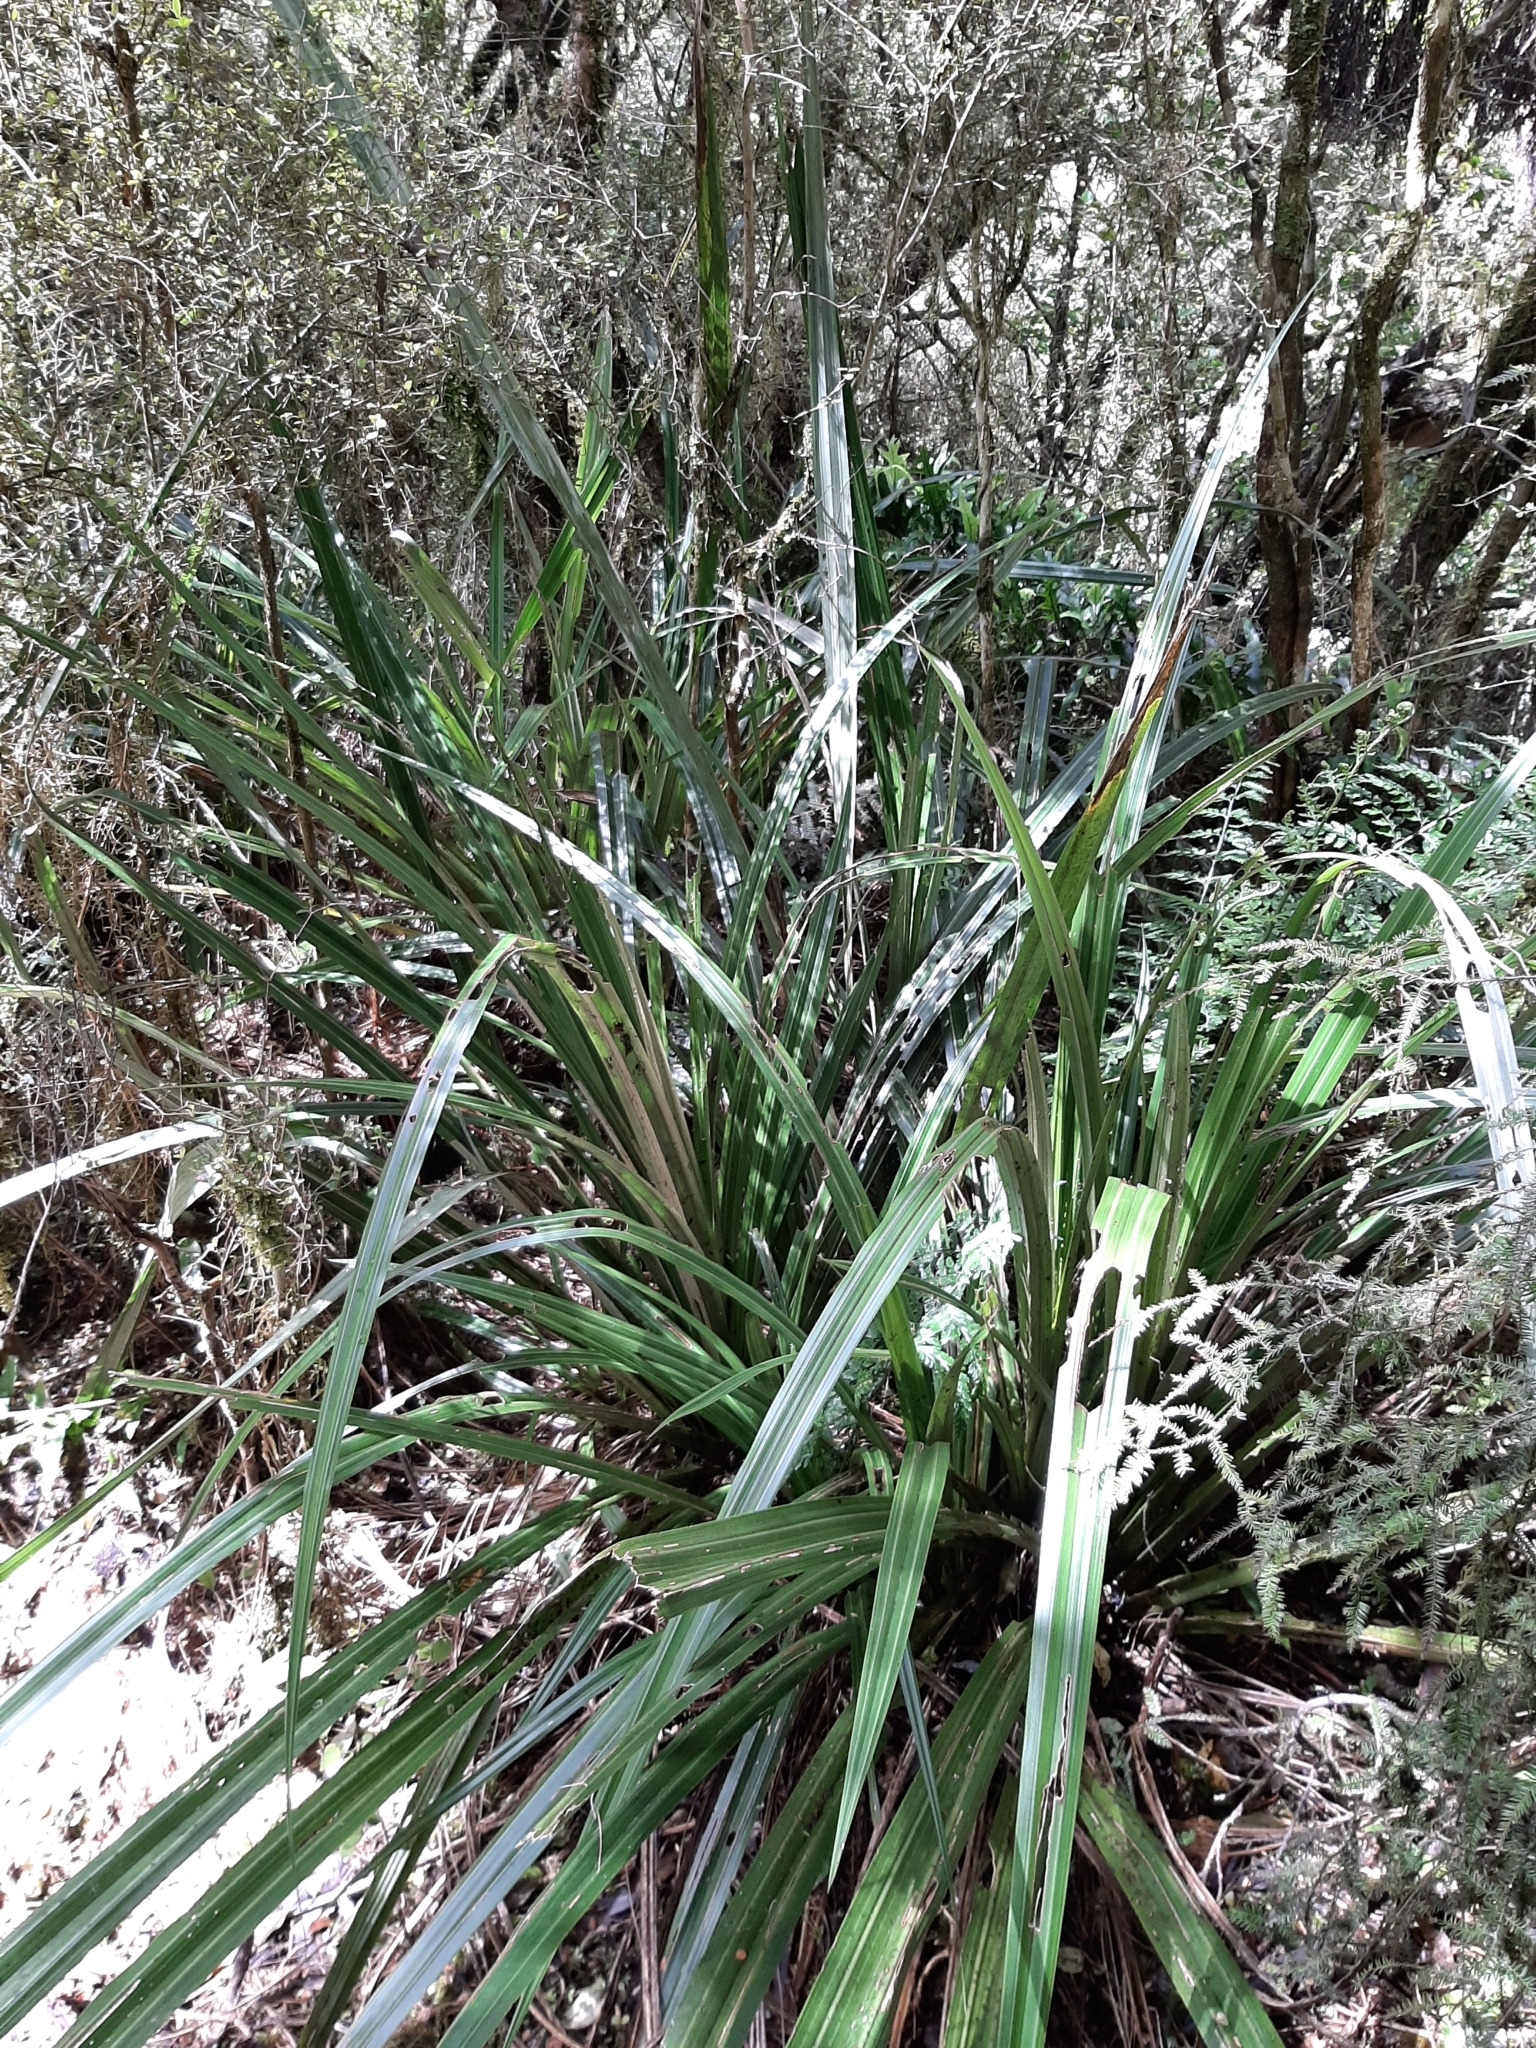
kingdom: Plantae
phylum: Tracheophyta
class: Liliopsida
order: Asparagales
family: Asteliaceae
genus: Astelia
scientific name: Astelia fragrans
